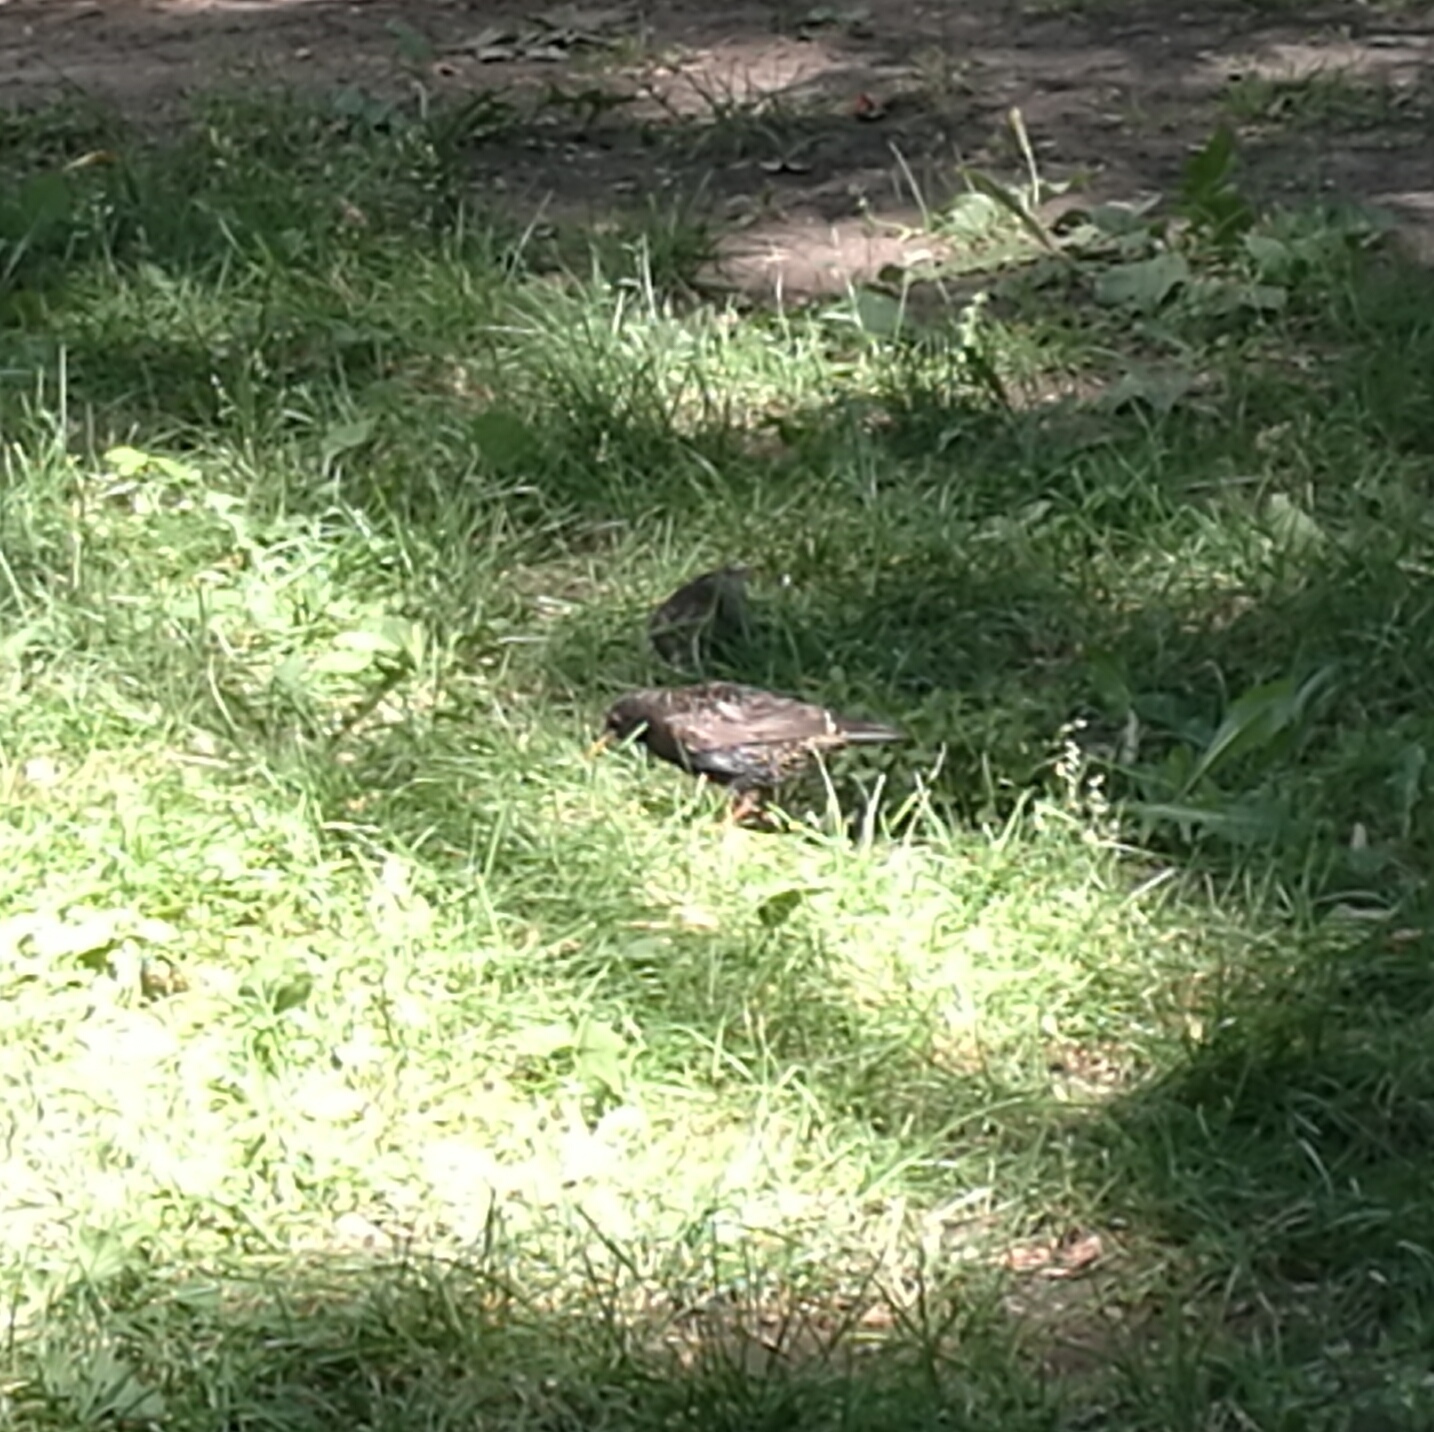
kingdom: Animalia
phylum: Chordata
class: Aves
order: Passeriformes
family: Sturnidae
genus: Sturnus
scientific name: Sturnus vulgaris
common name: Common starling
